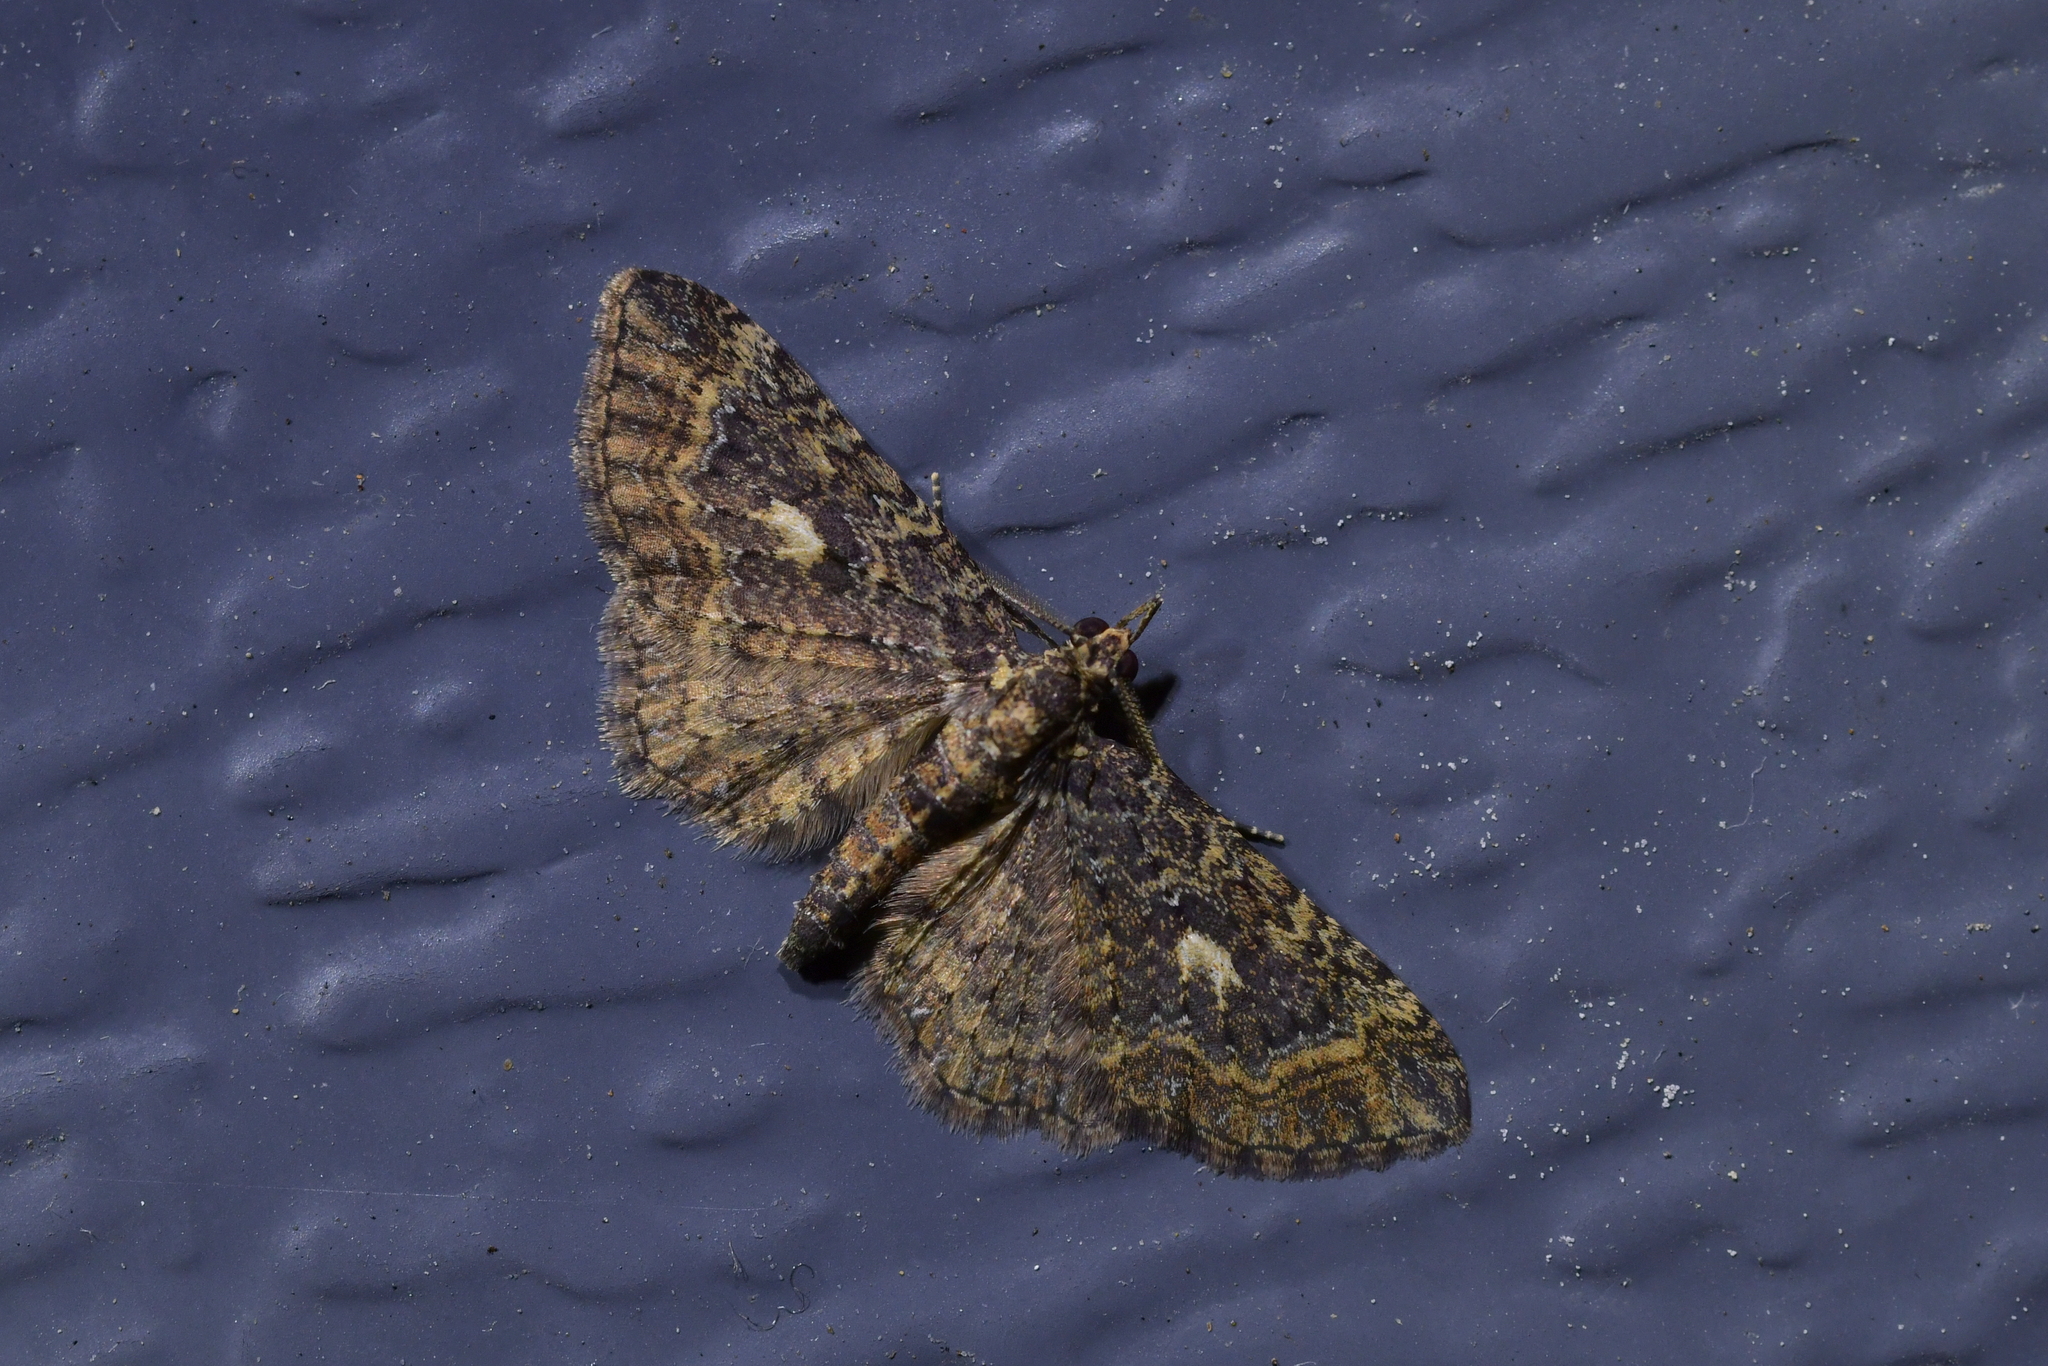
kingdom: Animalia
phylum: Arthropoda
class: Insecta
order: Lepidoptera
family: Geometridae
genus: Pasiphila
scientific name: Pasiphila lunata
